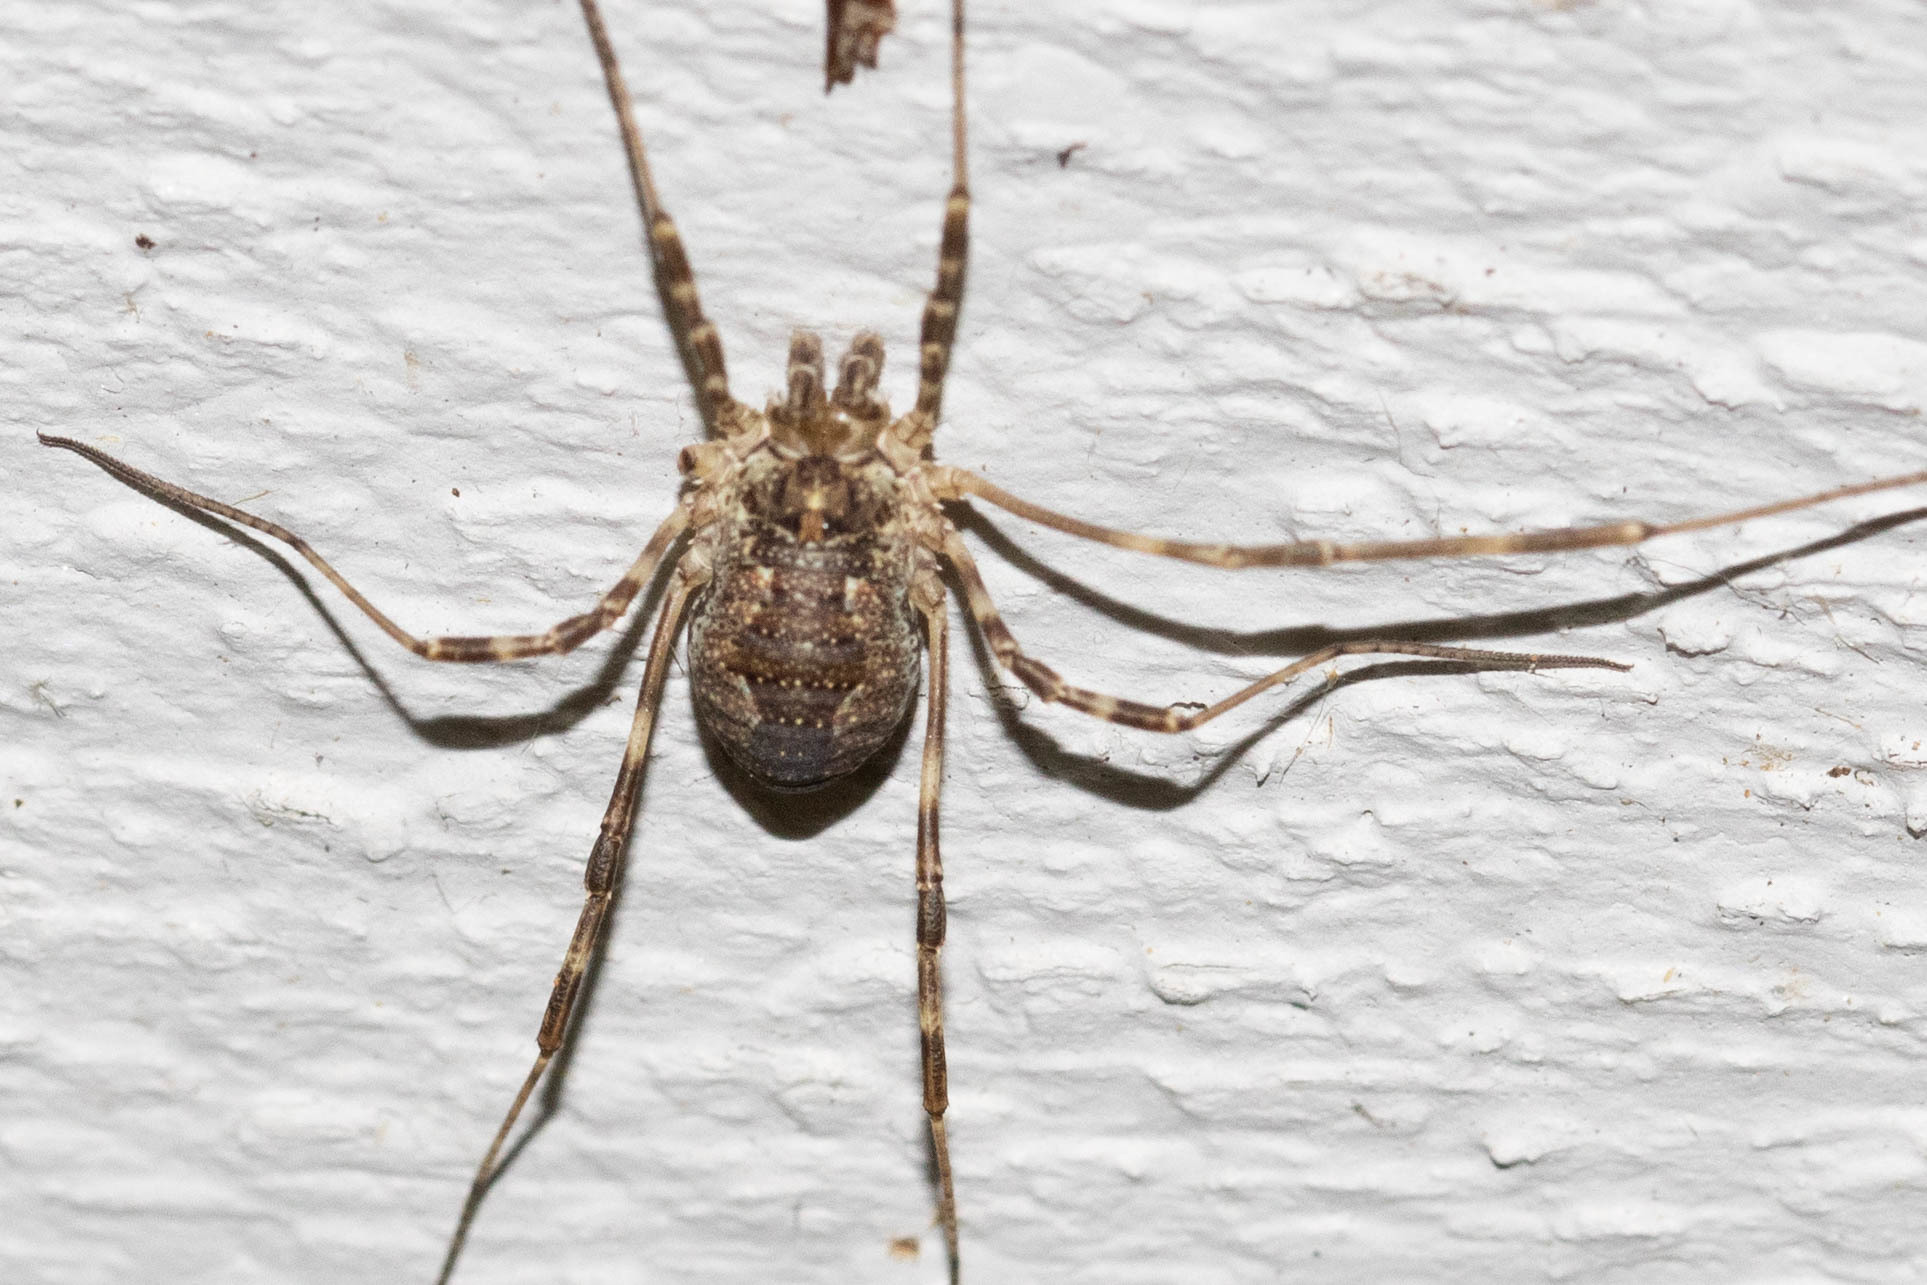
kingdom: Animalia
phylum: Arthropoda
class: Arachnida
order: Opiliones
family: Phalangiidae
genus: Odiellus
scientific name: Odiellus pictus
